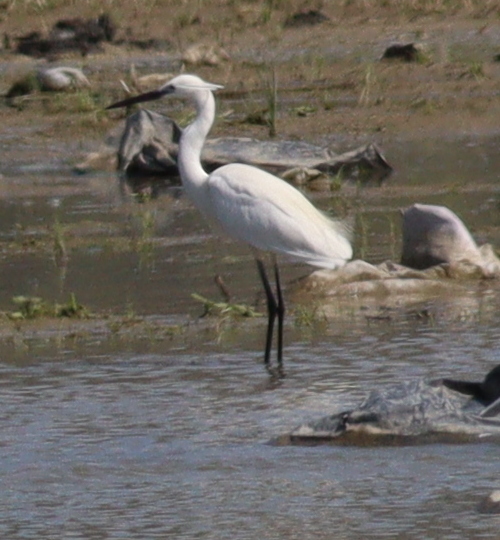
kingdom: Animalia
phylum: Chordata
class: Aves
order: Pelecaniformes
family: Ardeidae
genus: Egretta
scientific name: Egretta garzetta
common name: Little egret
